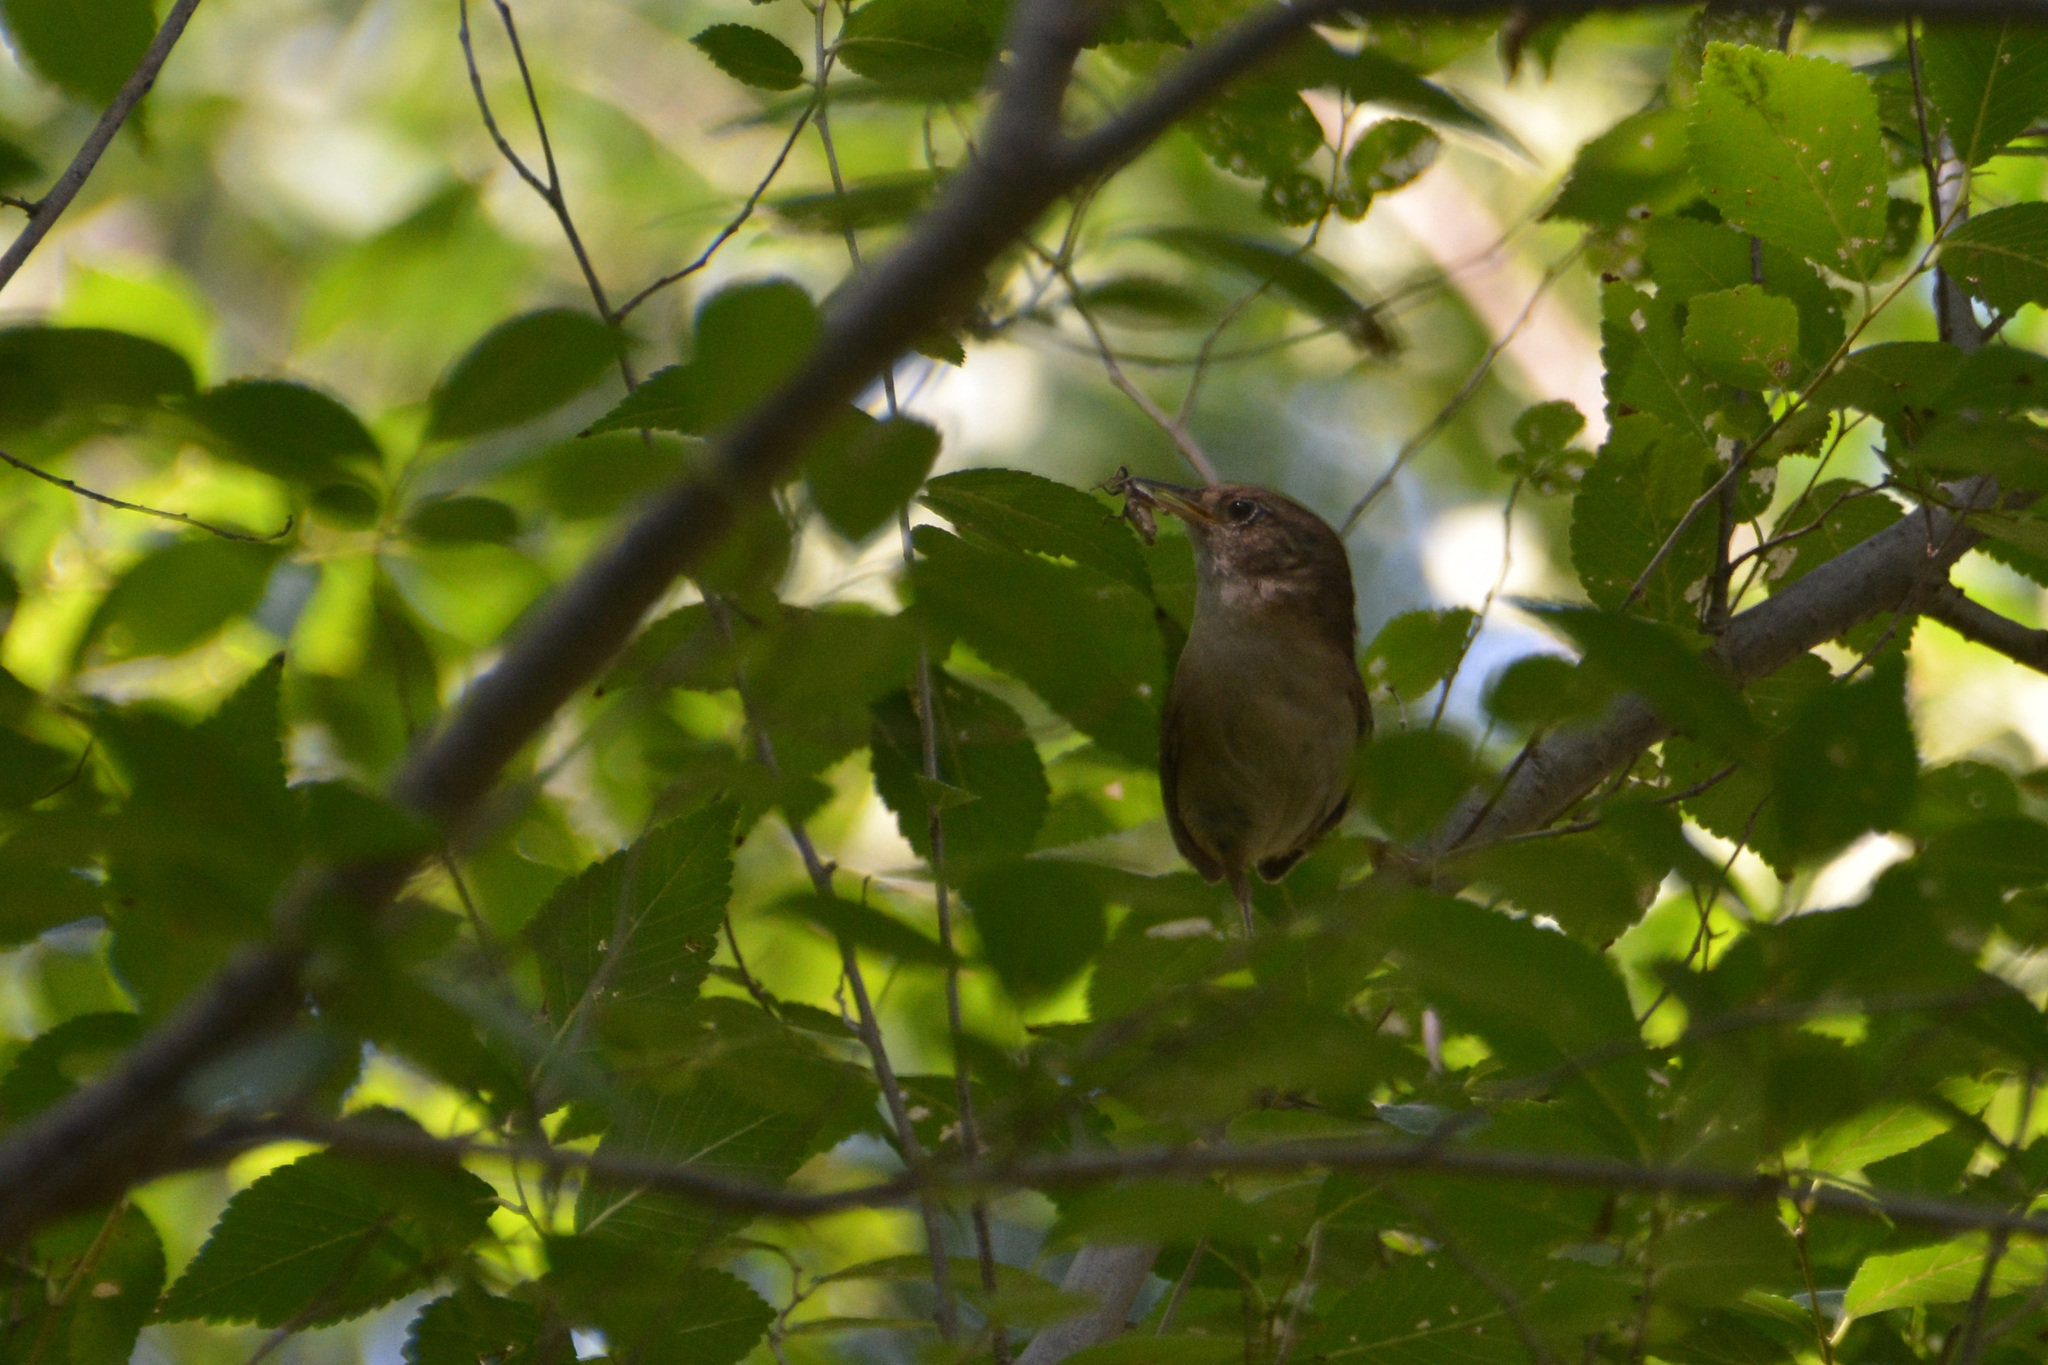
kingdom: Animalia
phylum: Chordata
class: Aves
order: Passeriformes
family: Troglodytidae
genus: Troglodytes
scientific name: Troglodytes aedon
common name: House wren
